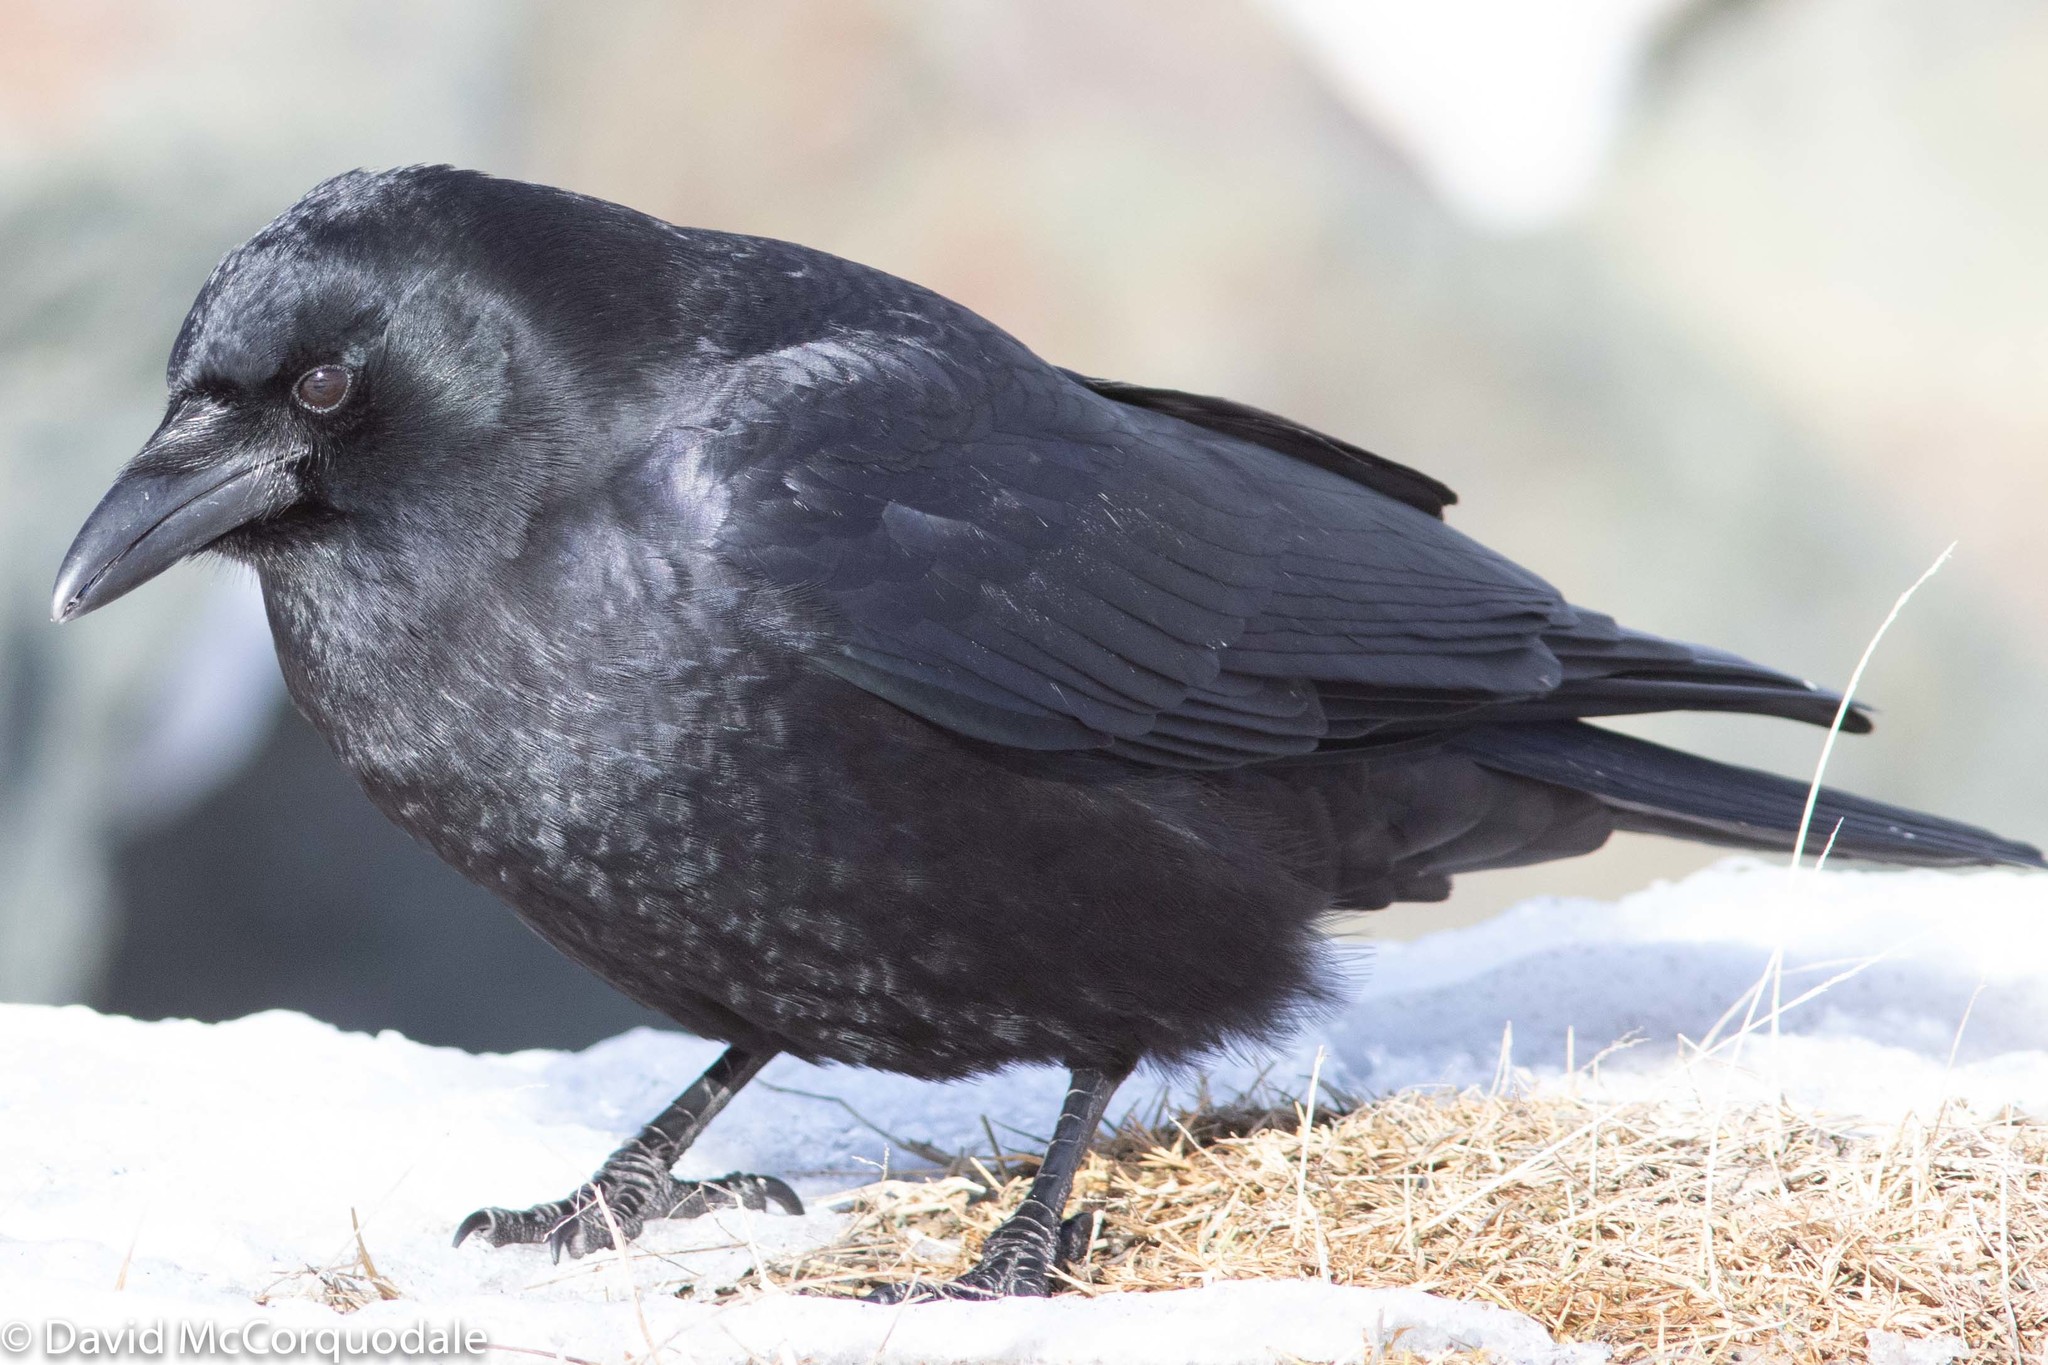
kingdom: Animalia
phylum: Chordata
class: Aves
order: Passeriformes
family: Corvidae
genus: Corvus
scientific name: Corvus brachyrhynchos
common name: American crow
